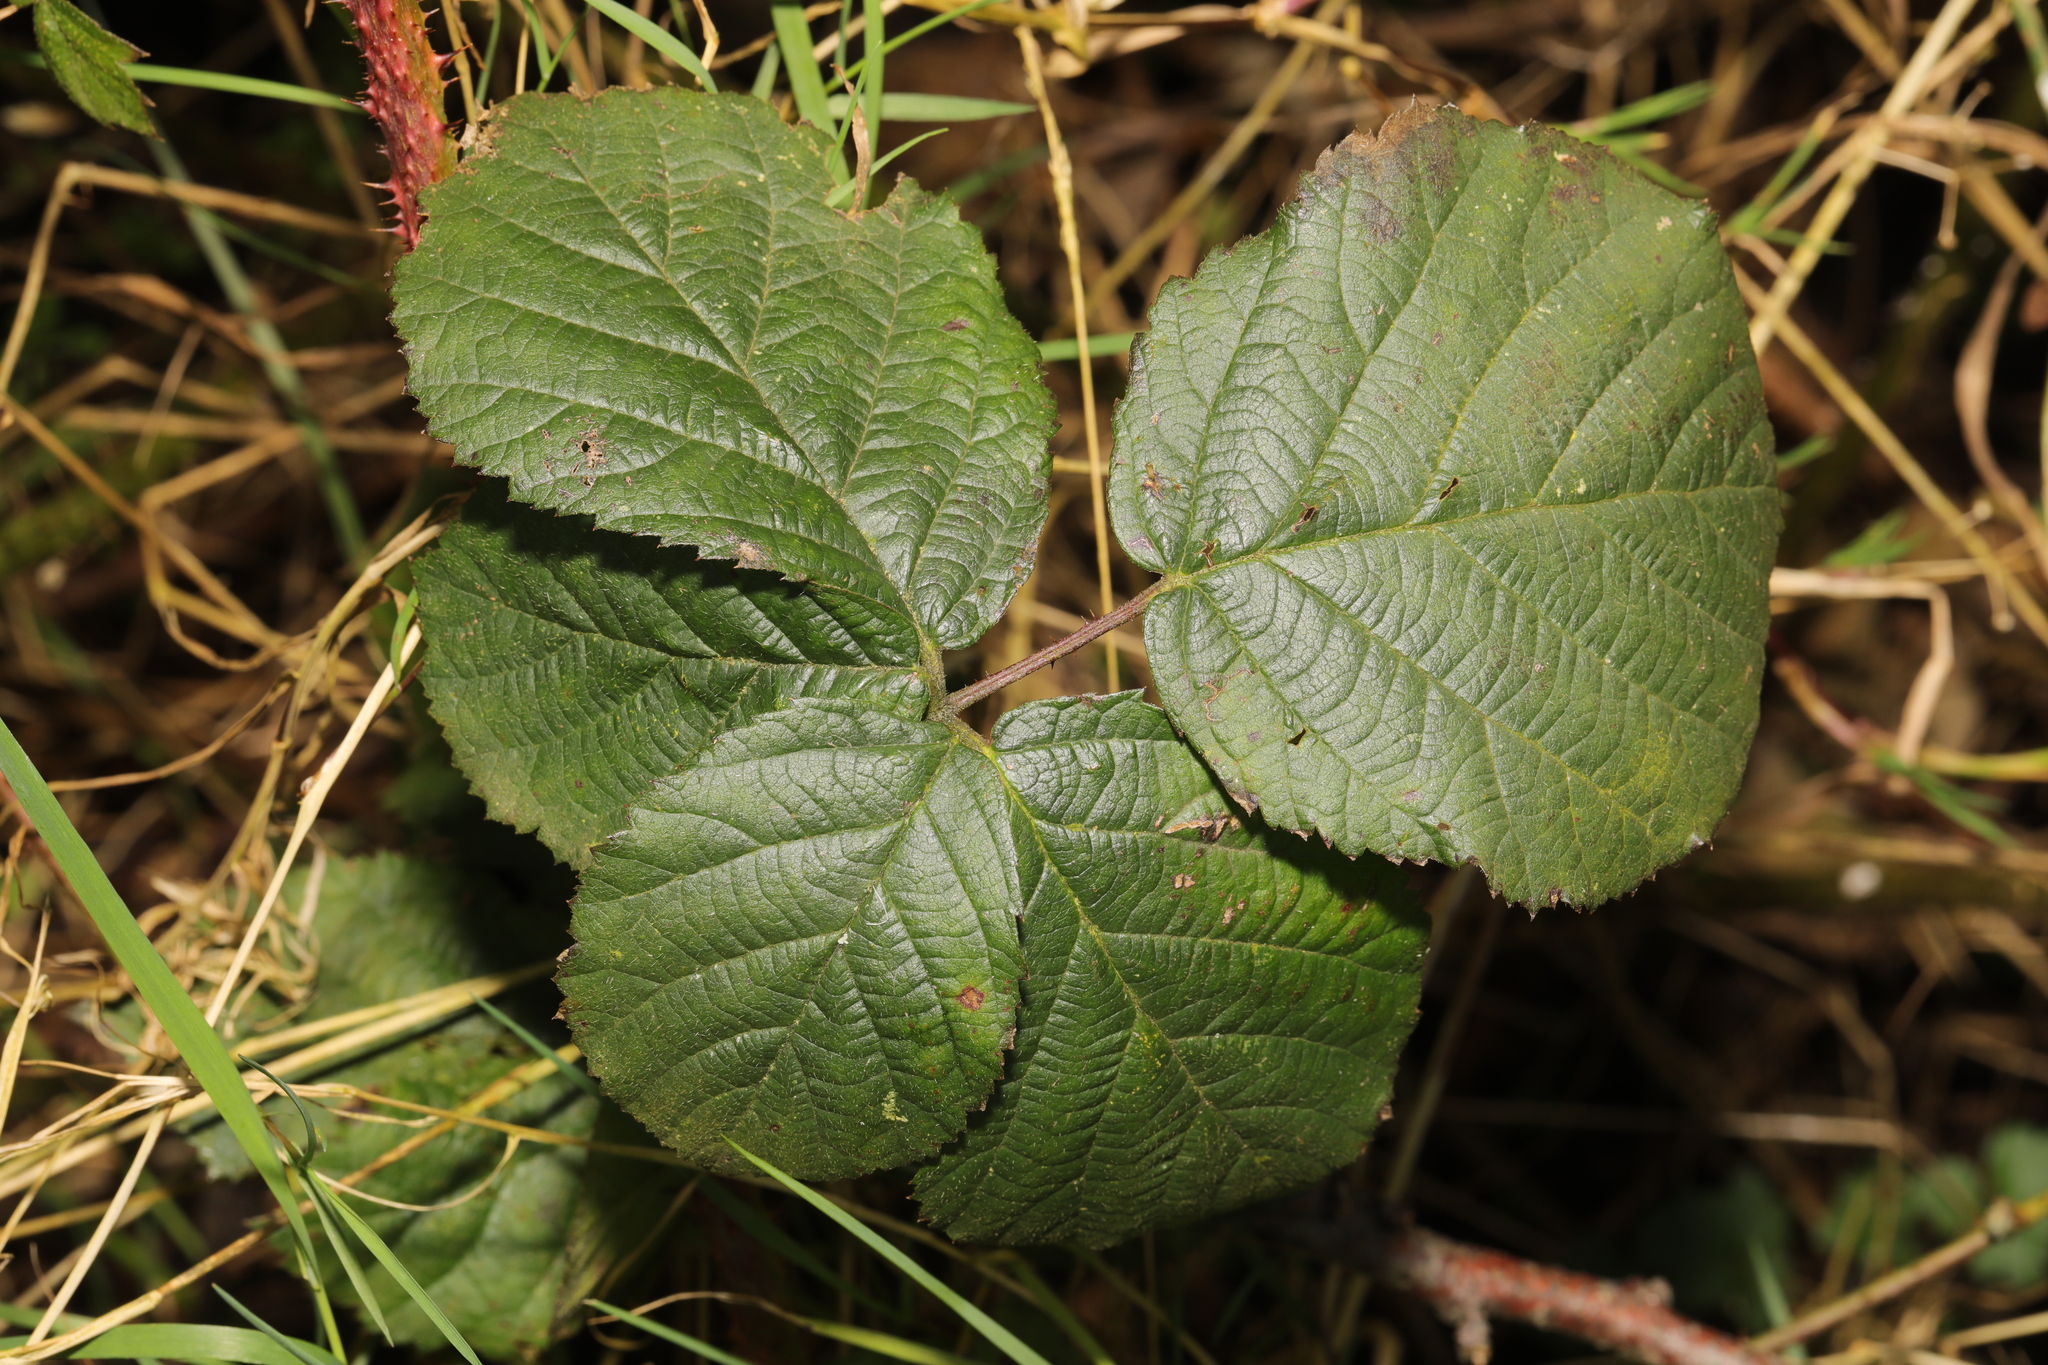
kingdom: Plantae
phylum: Tracheophyta
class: Magnoliopsida
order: Rosales
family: Rosaceae
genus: Rubus
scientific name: Rubus horrefactus
